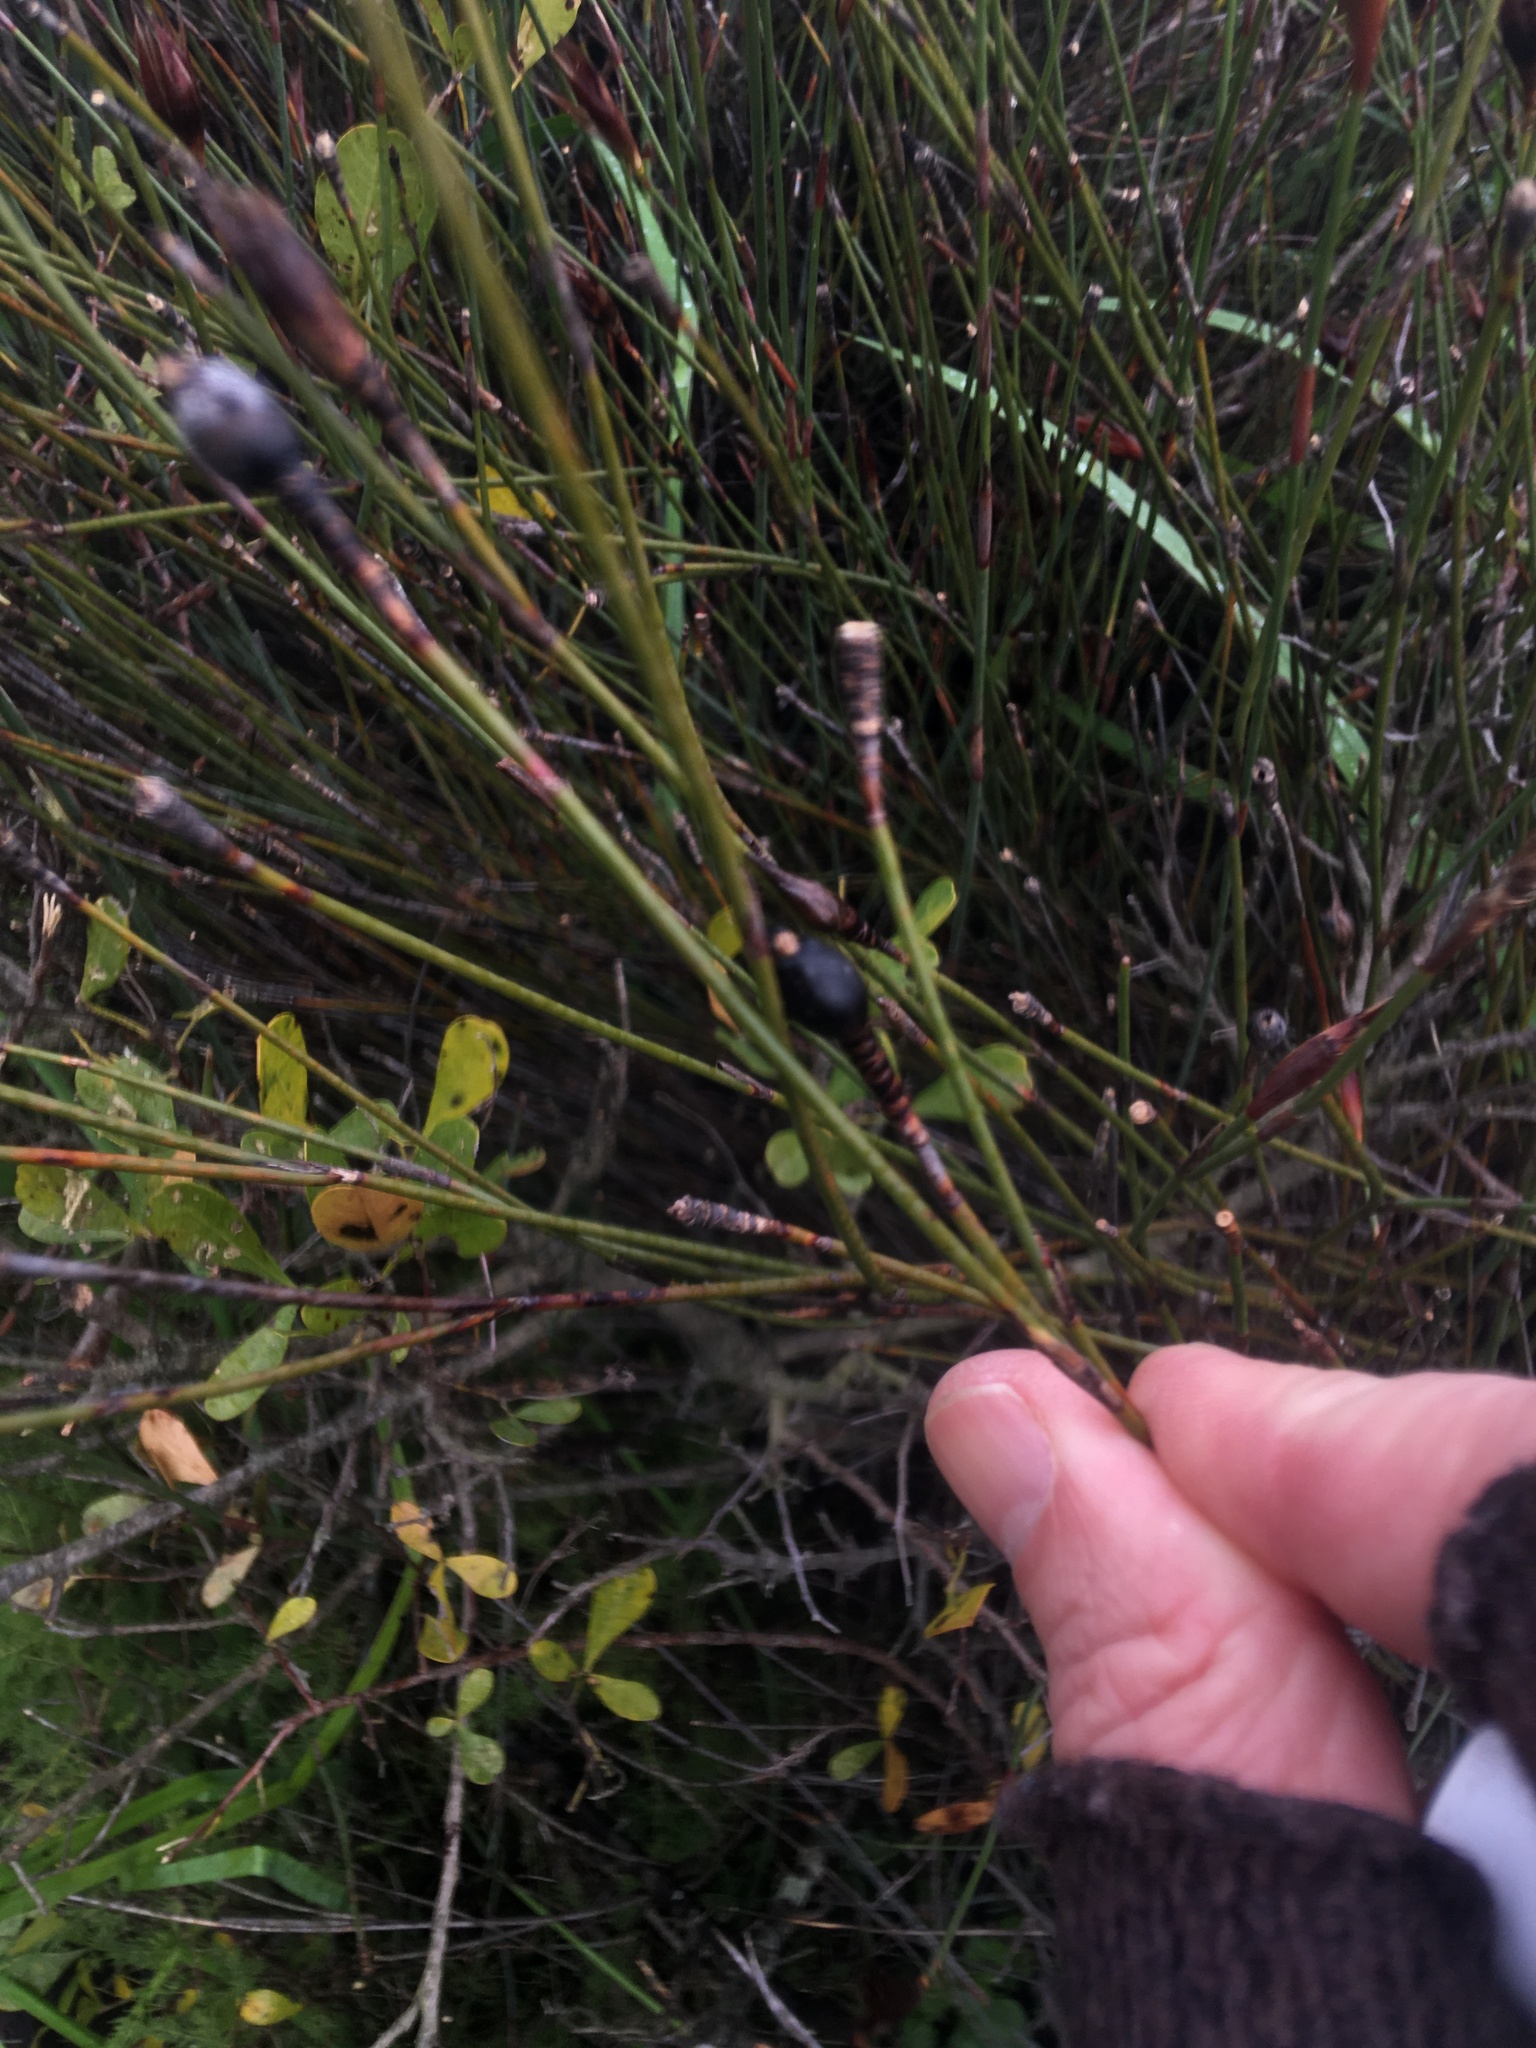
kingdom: Plantae
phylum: Tracheophyta
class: Liliopsida
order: Poales
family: Restionaceae
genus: Willdenowia
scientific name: Willdenowia incurvata
